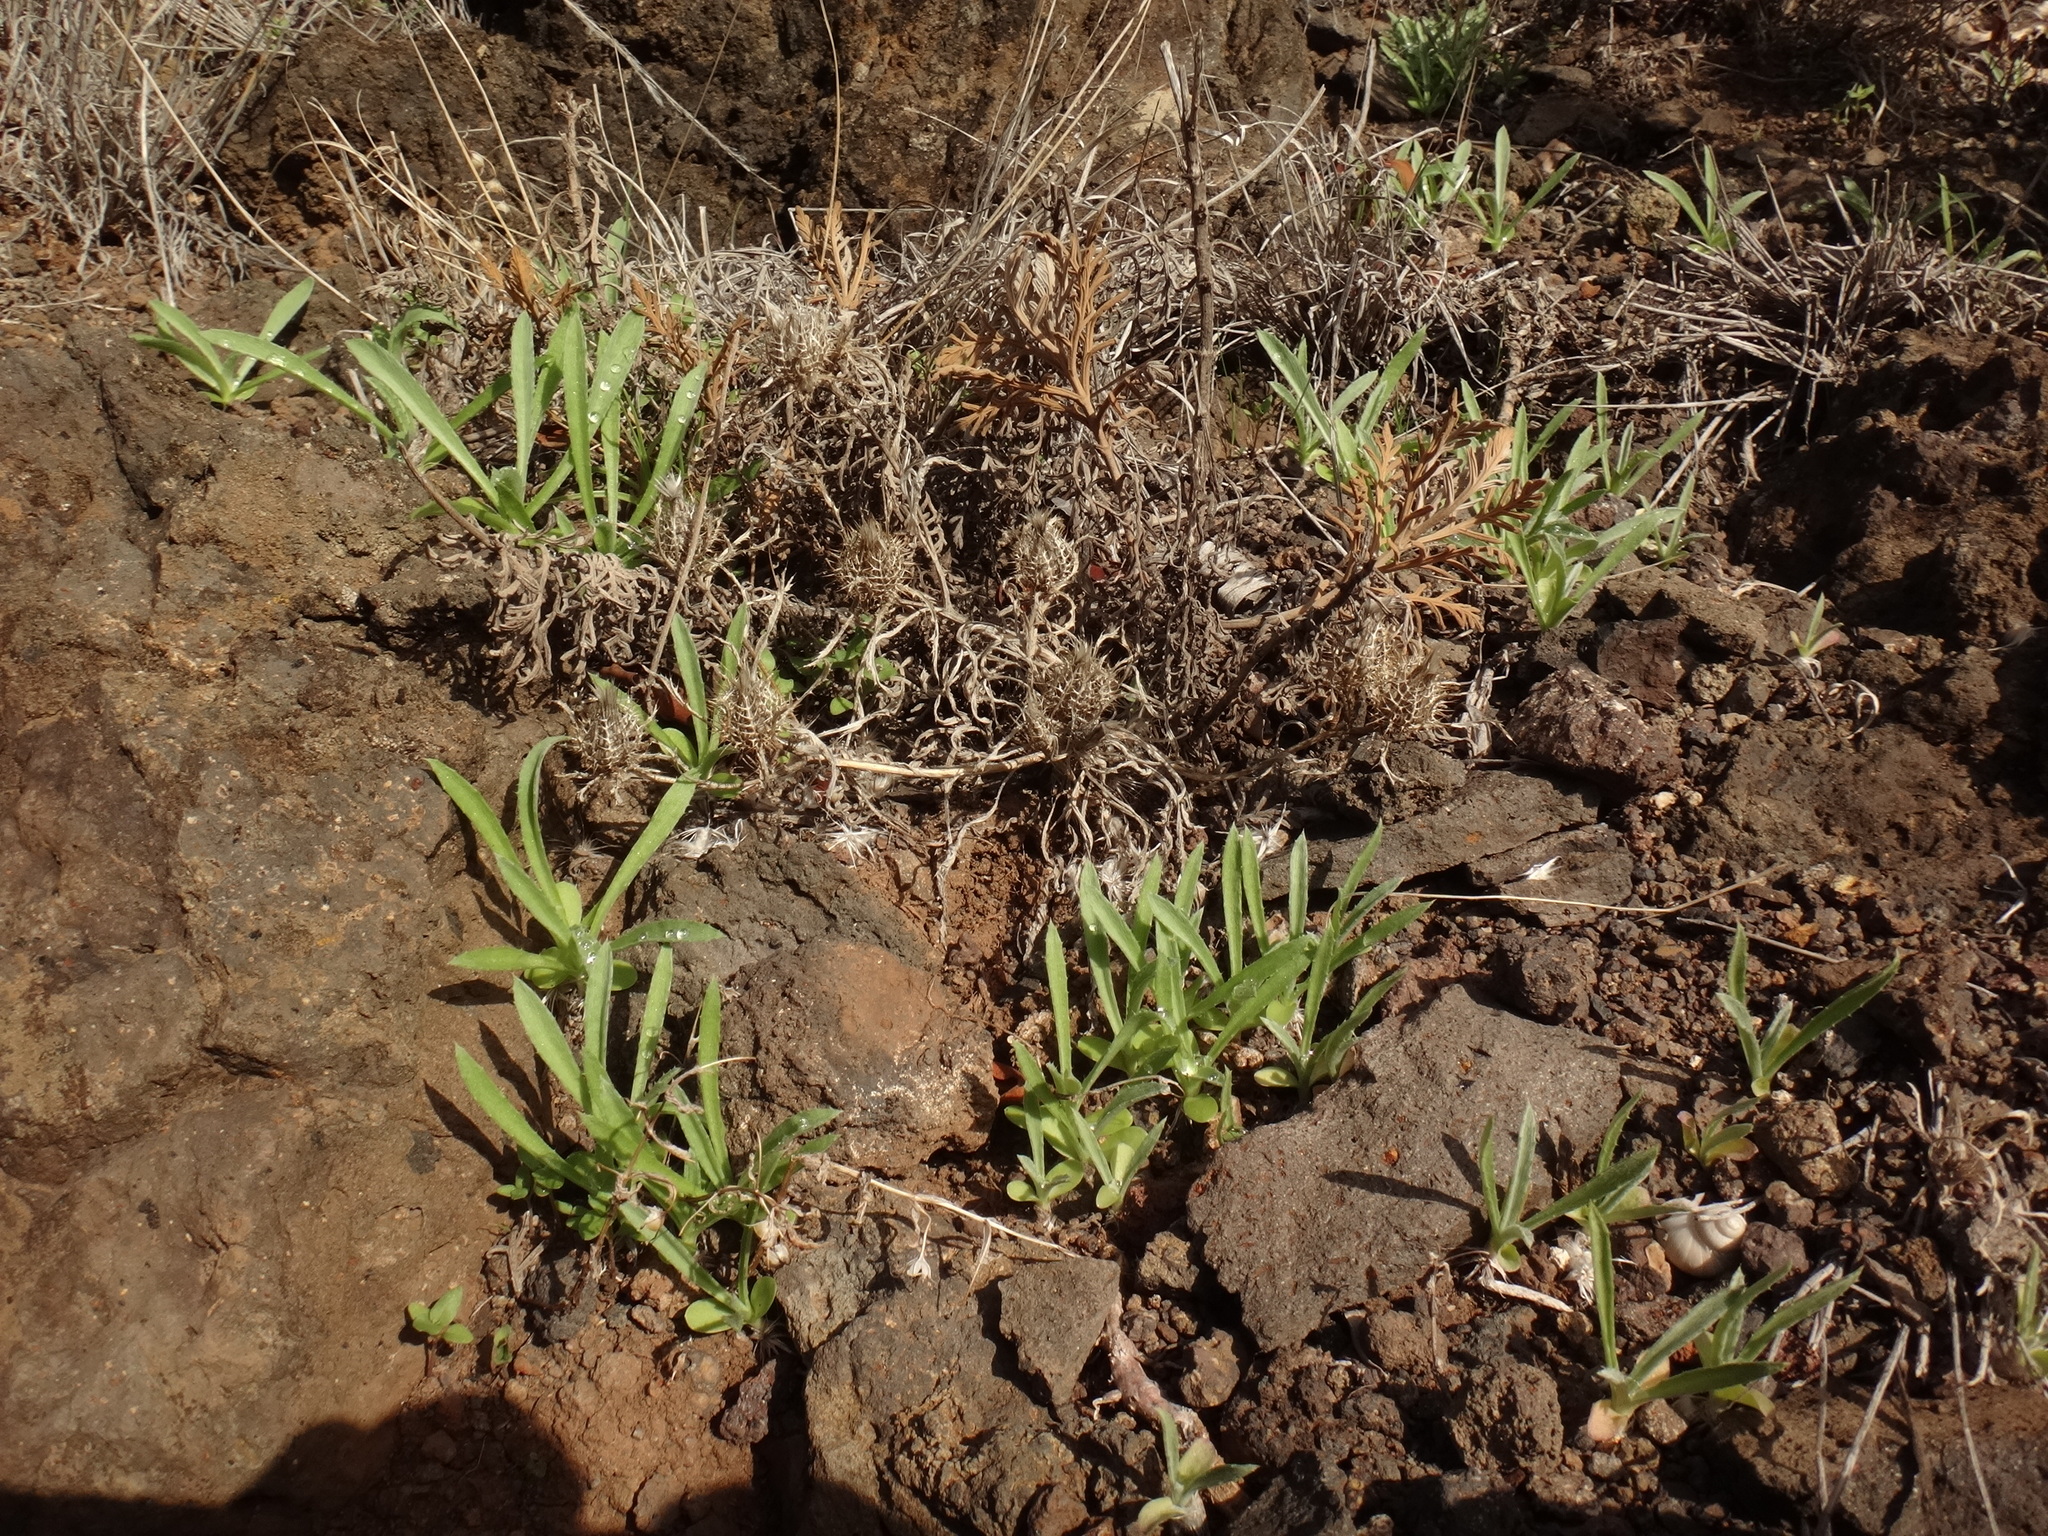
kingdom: Plantae
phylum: Tracheophyta
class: Magnoliopsida
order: Asterales
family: Asteraceae
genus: Atractylis
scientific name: Atractylis cancellata
